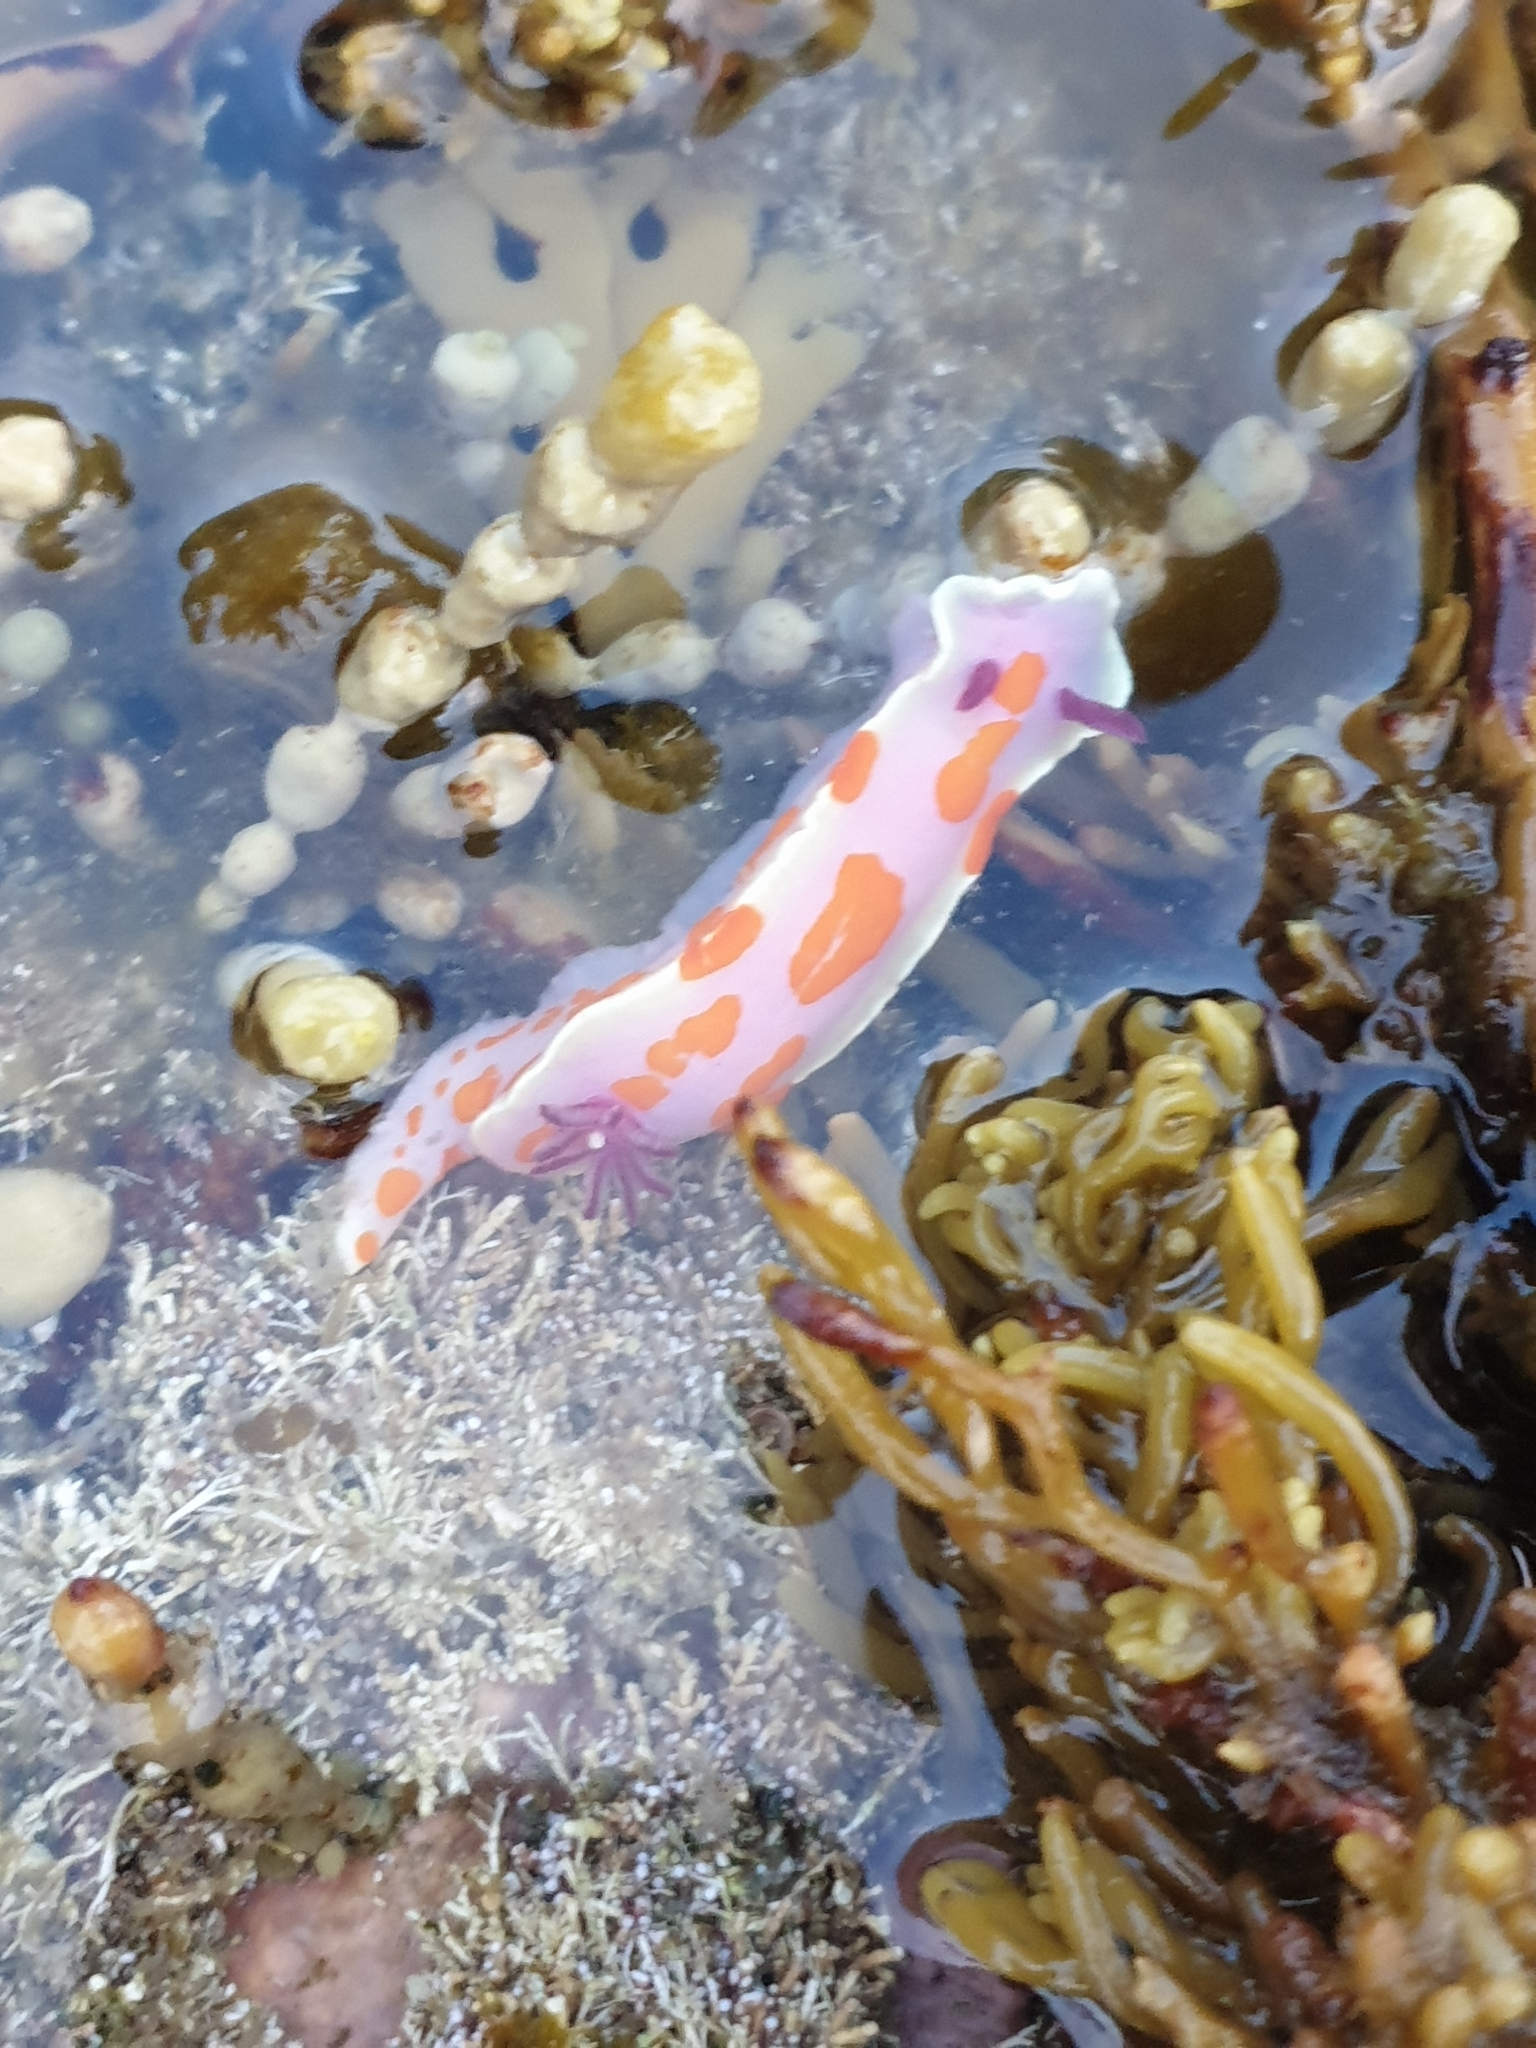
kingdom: Animalia
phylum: Mollusca
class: Gastropoda
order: Nudibranchia
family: Chromodorididae
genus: Ceratosoma
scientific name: Ceratosoma amoenum
